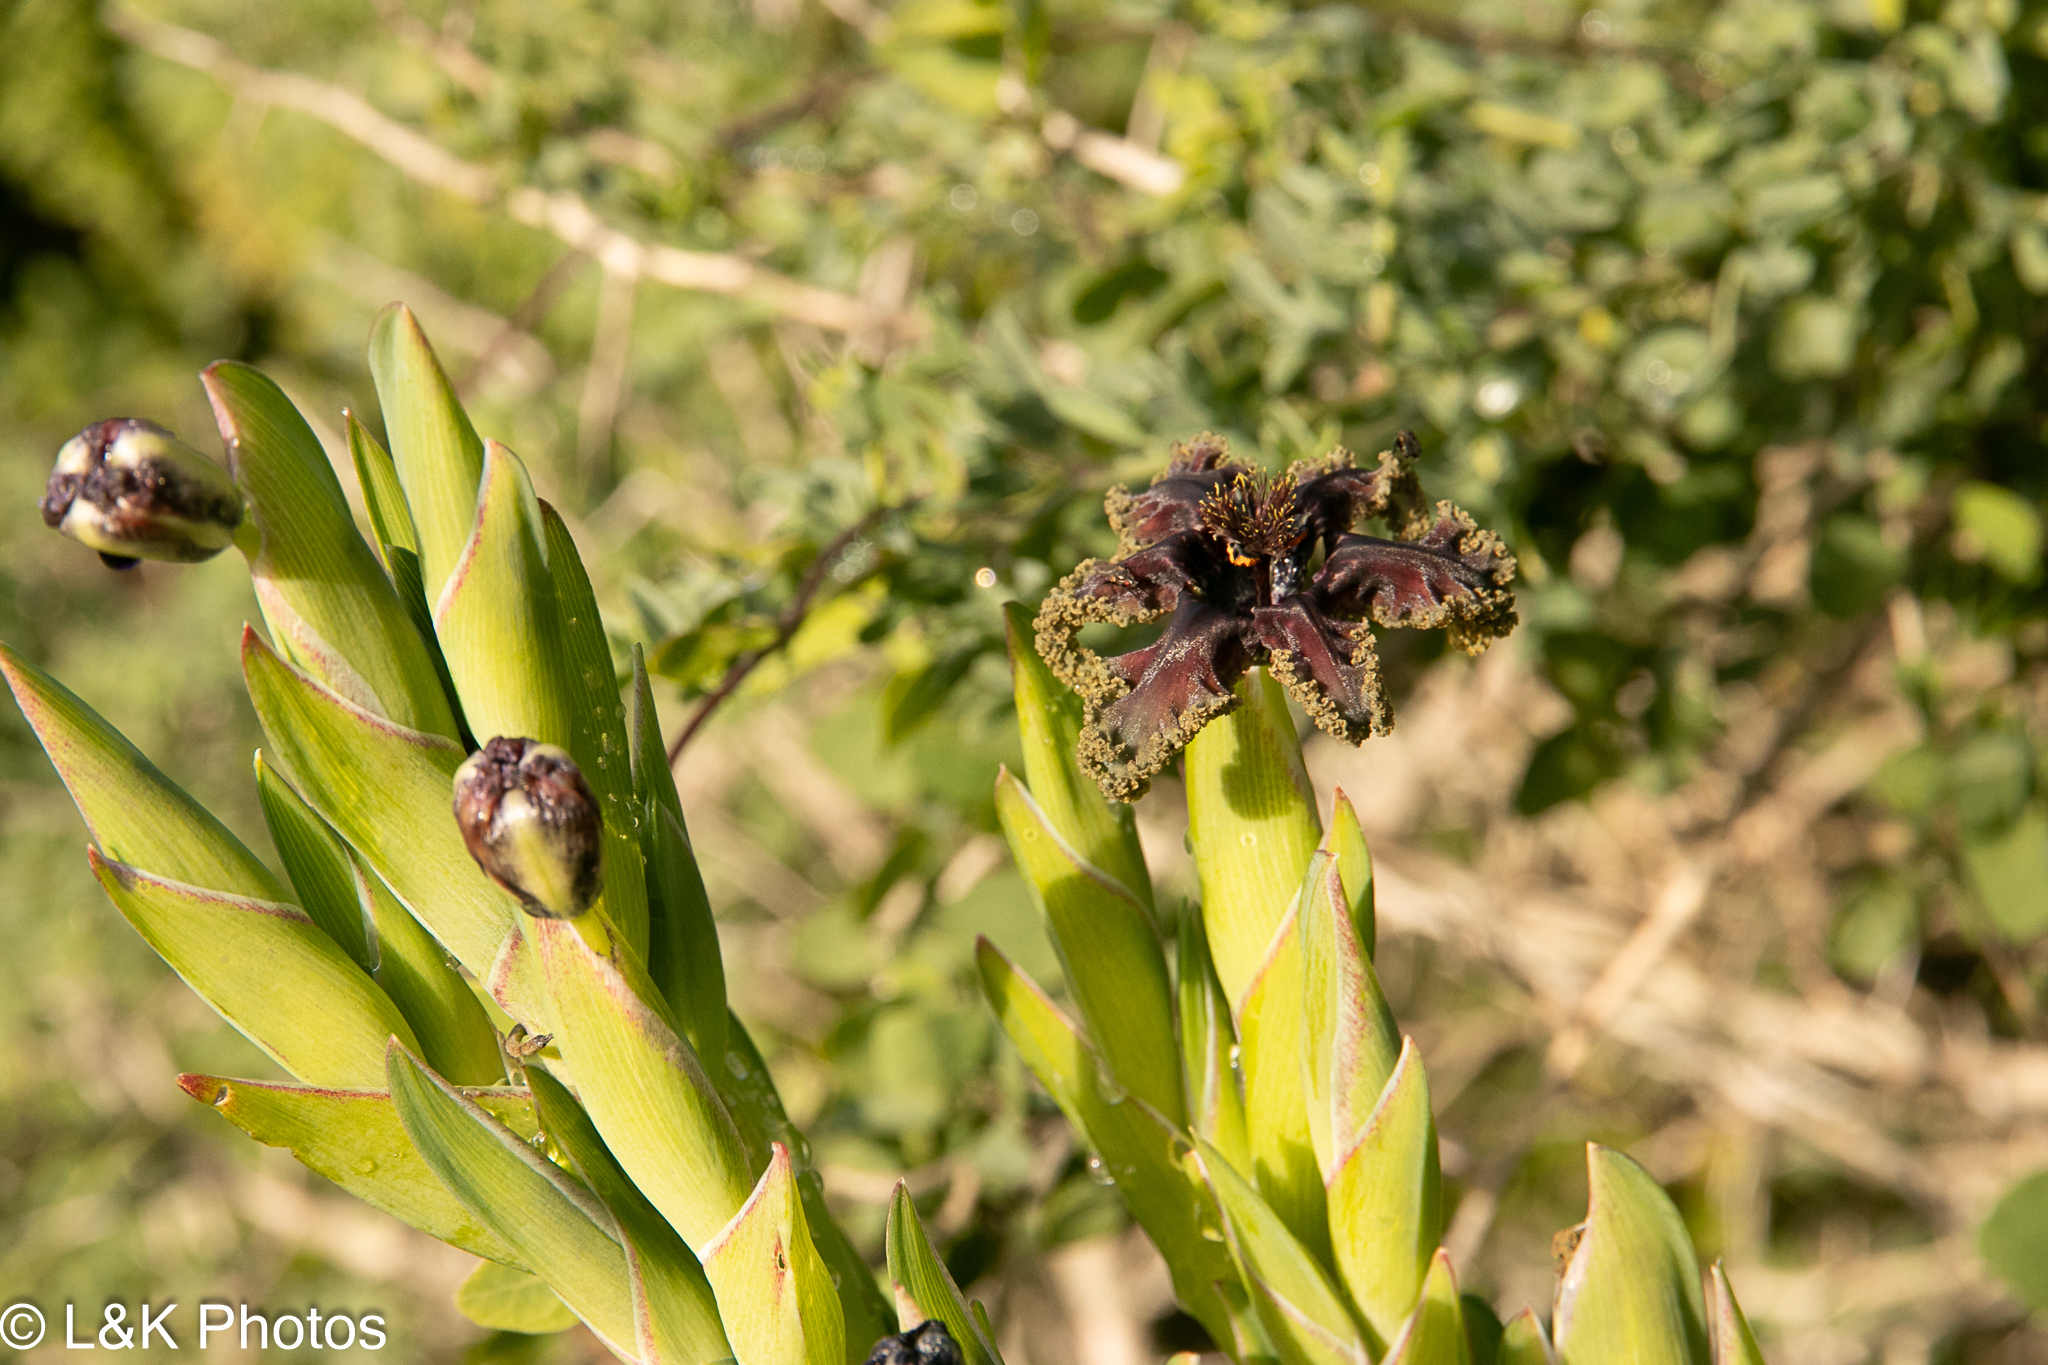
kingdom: Plantae
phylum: Tracheophyta
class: Liliopsida
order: Asparagales
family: Iridaceae
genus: Ferraria
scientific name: Ferraria crispa
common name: Black-flag
